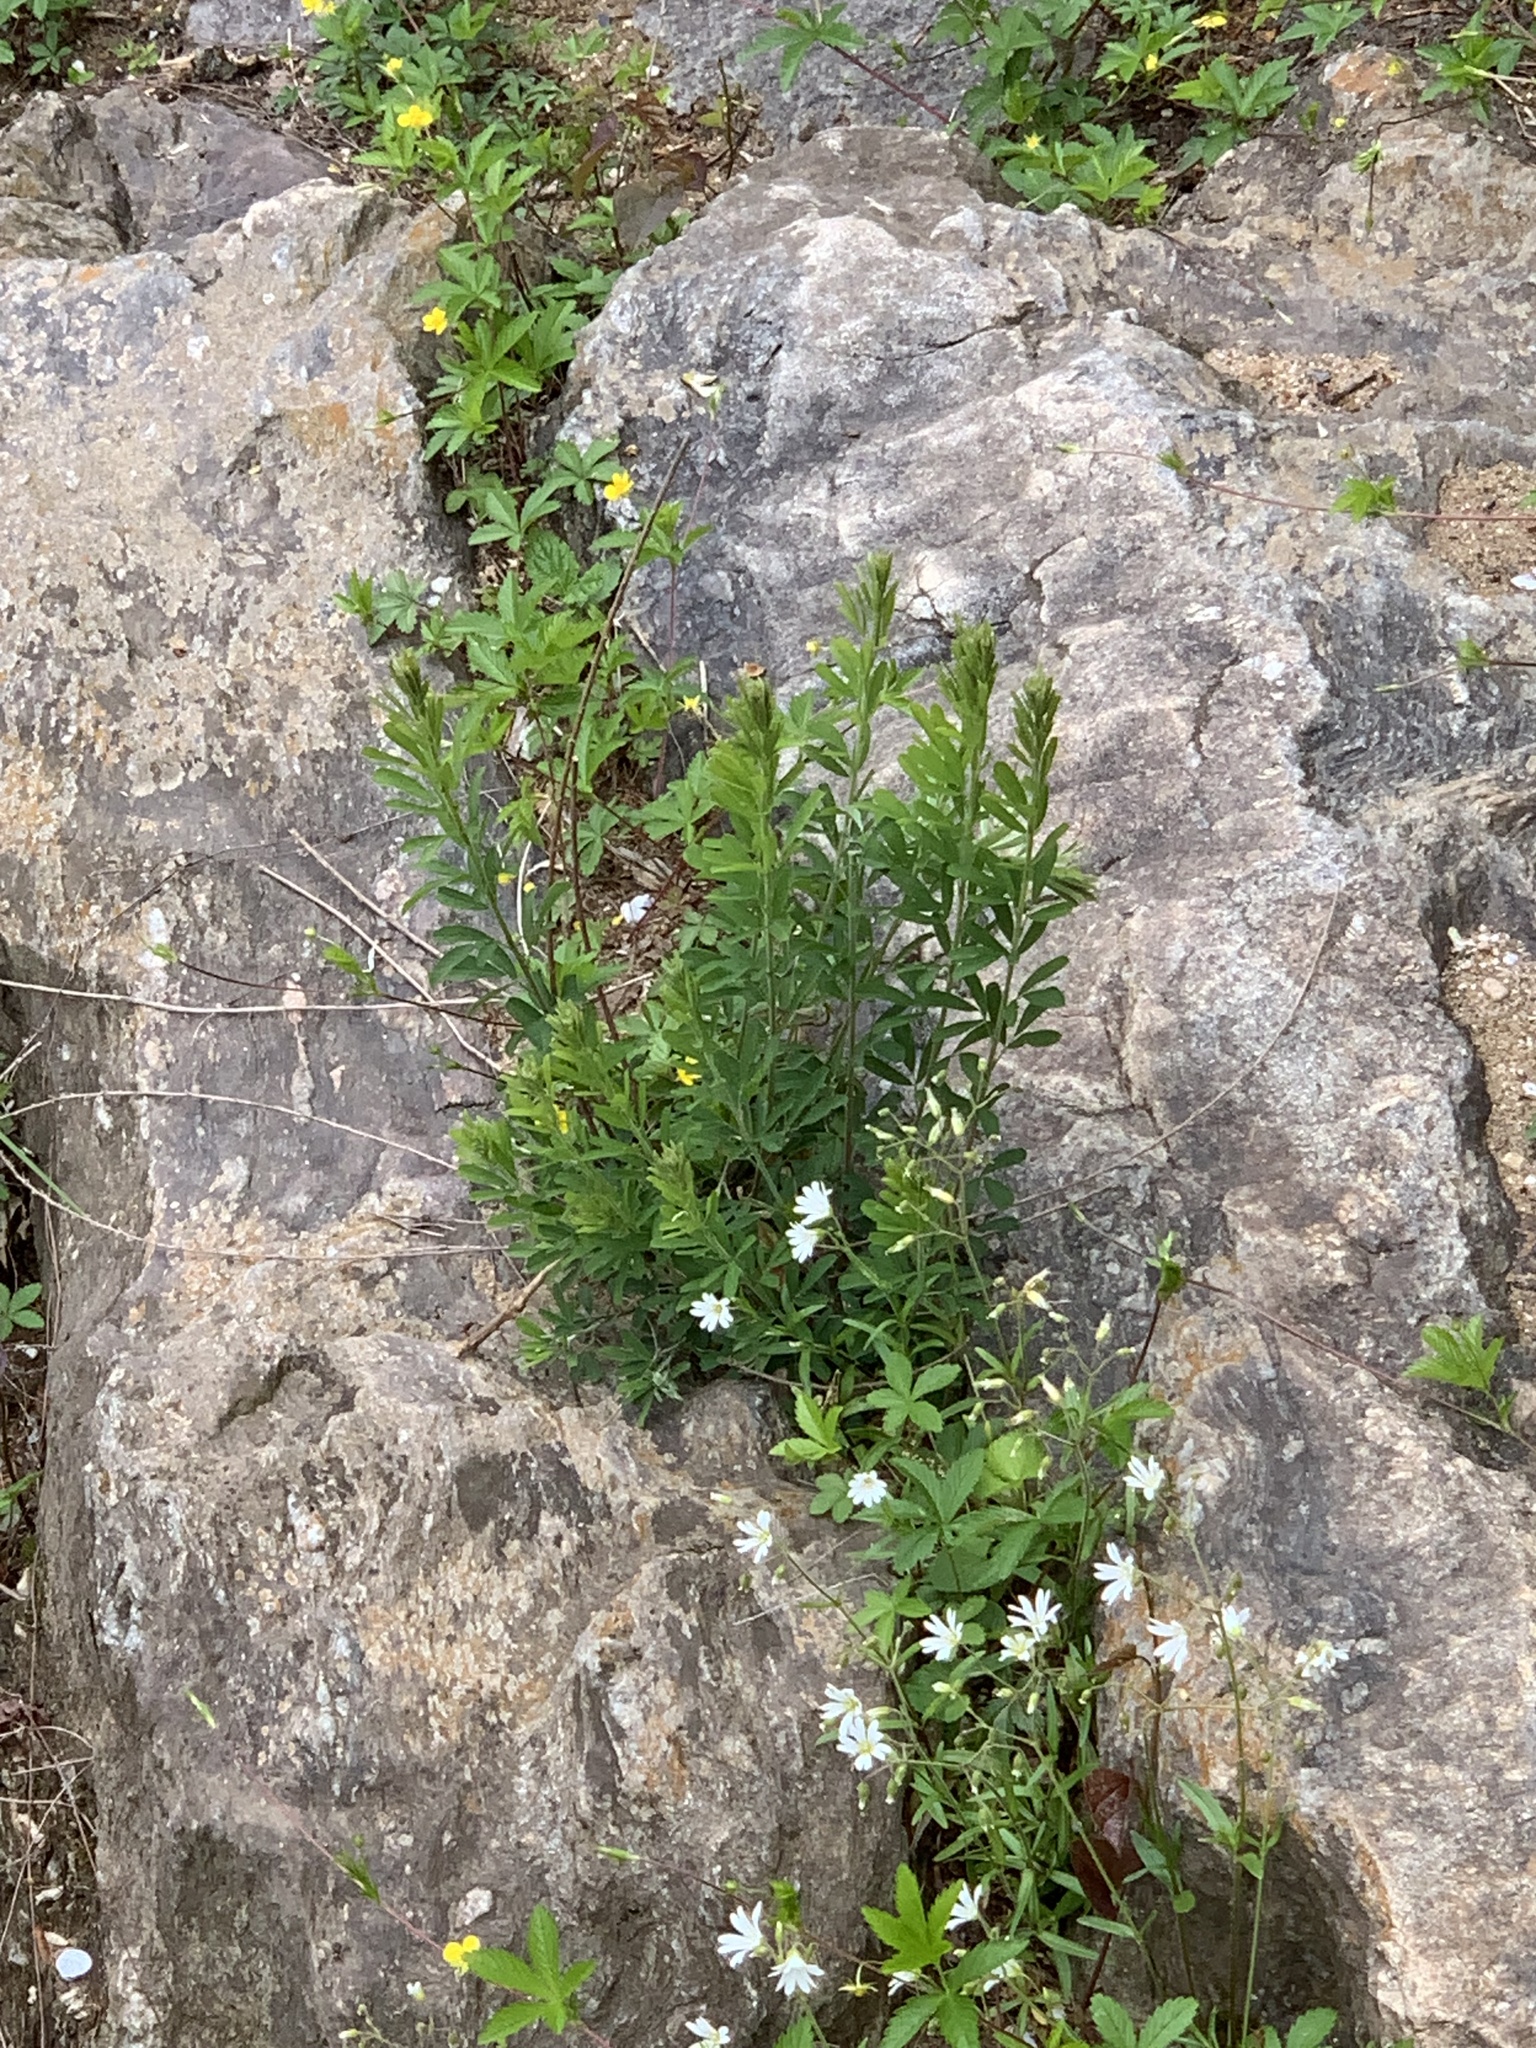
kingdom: Plantae
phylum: Tracheophyta
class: Magnoliopsida
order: Fabales
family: Fabaceae
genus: Lespedeza
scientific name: Lespedeza cuneata
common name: Chinese bush-clover
